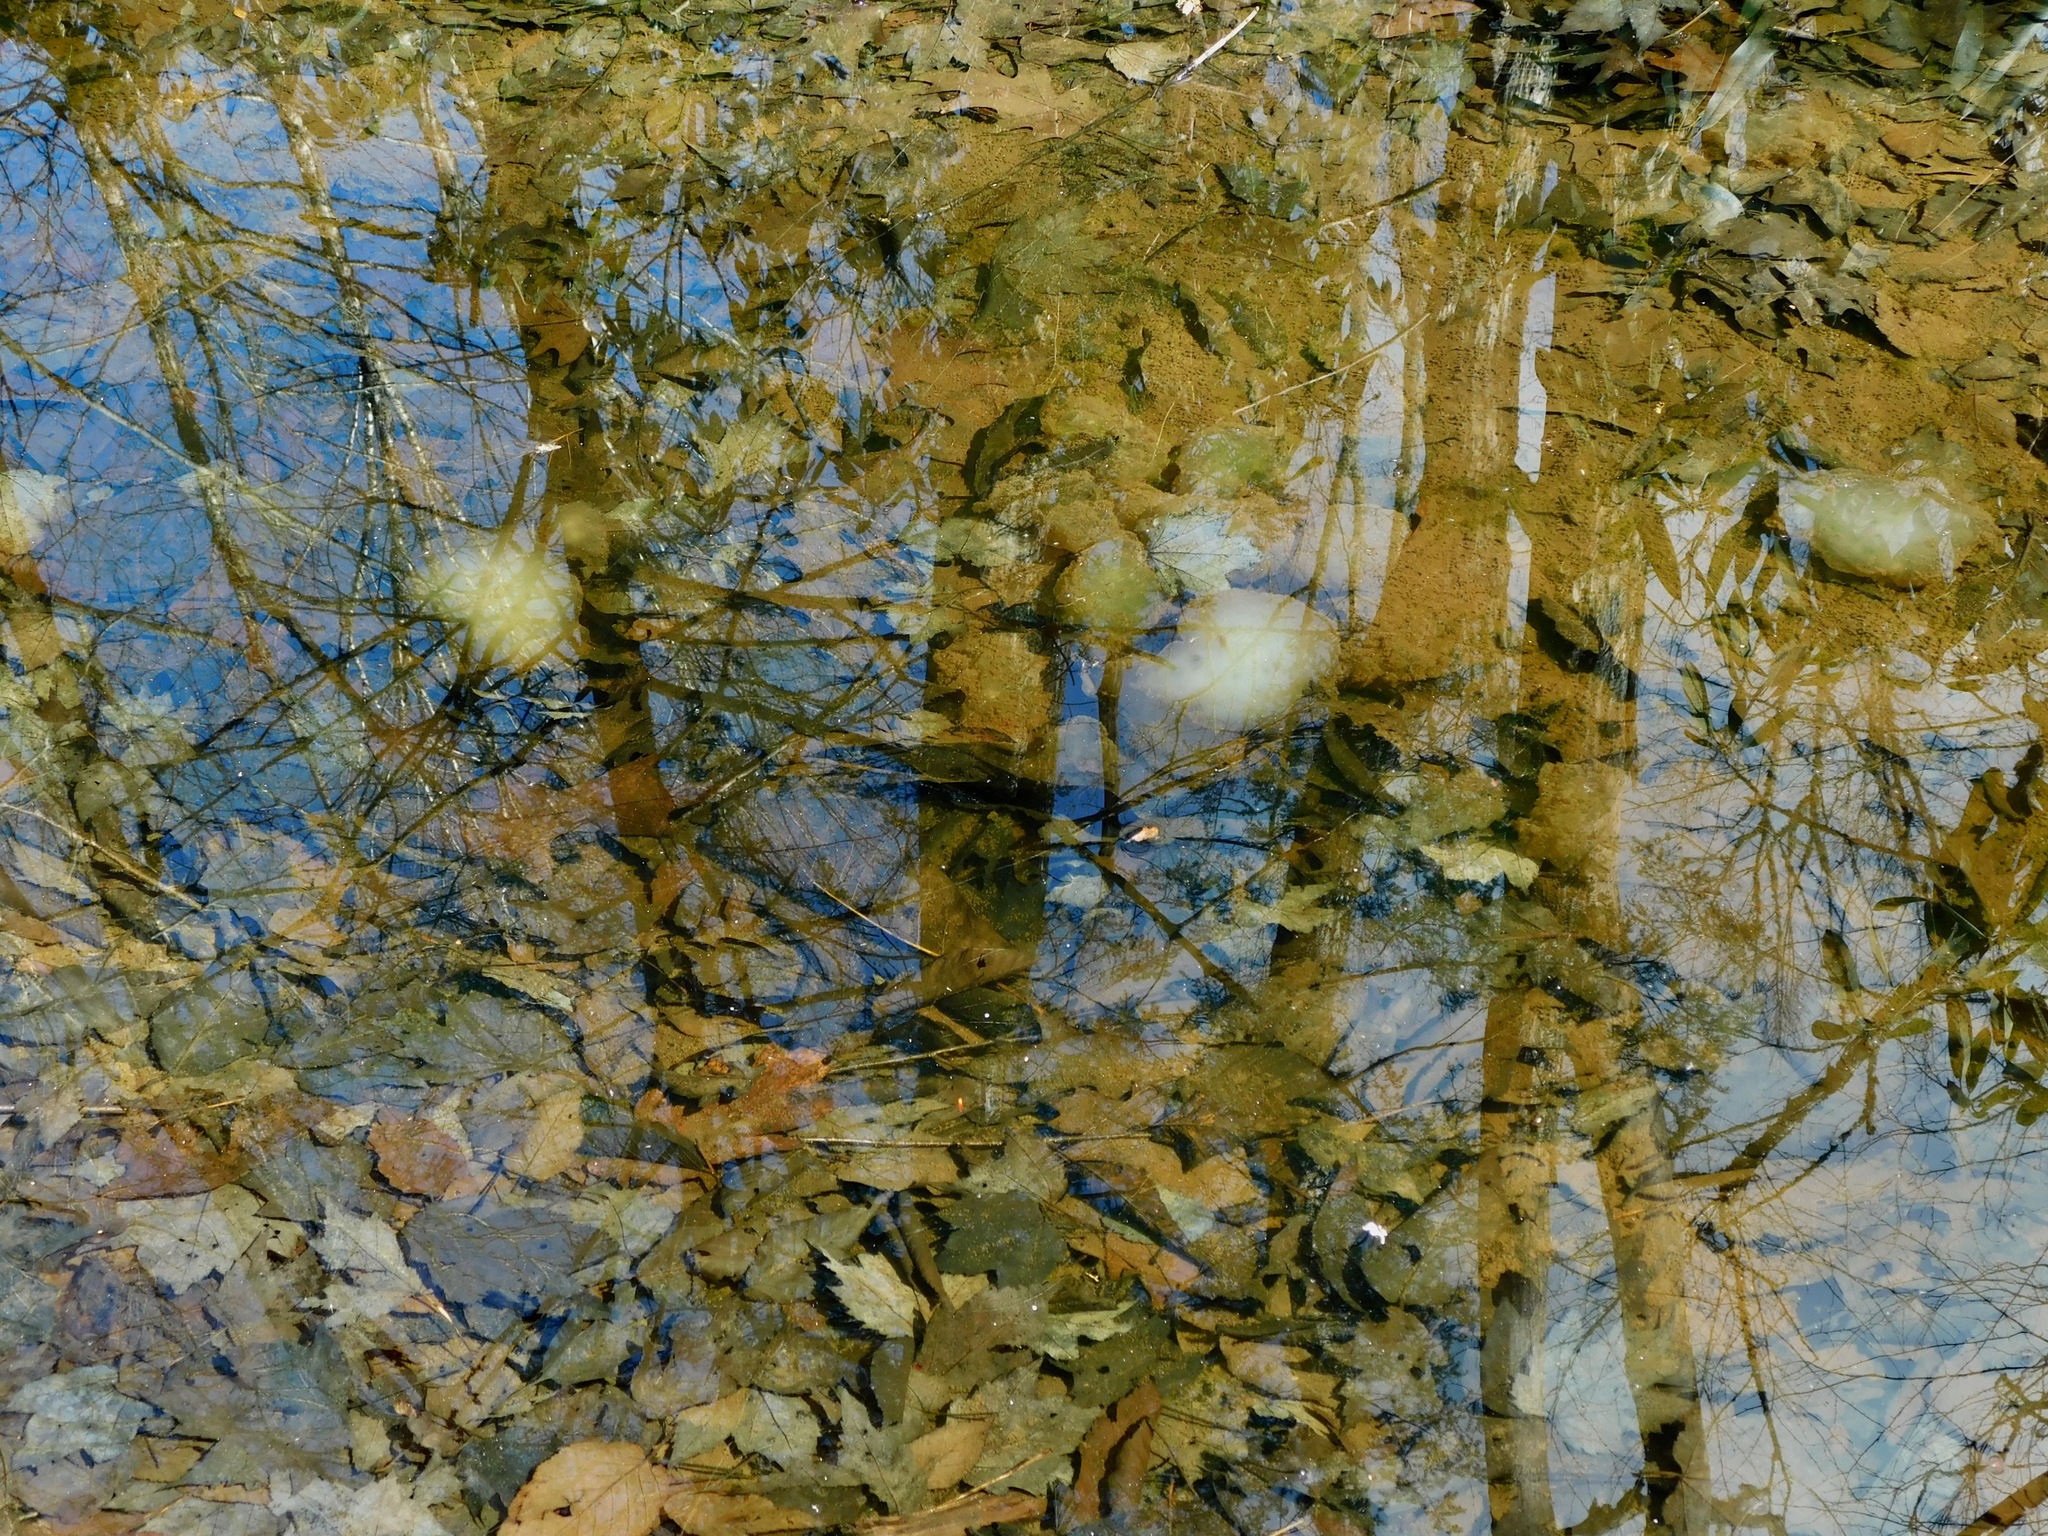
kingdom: Animalia
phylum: Chordata
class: Amphibia
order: Caudata
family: Ambystomatidae
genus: Ambystoma
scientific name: Ambystoma maculatum
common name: Spotted salamander
